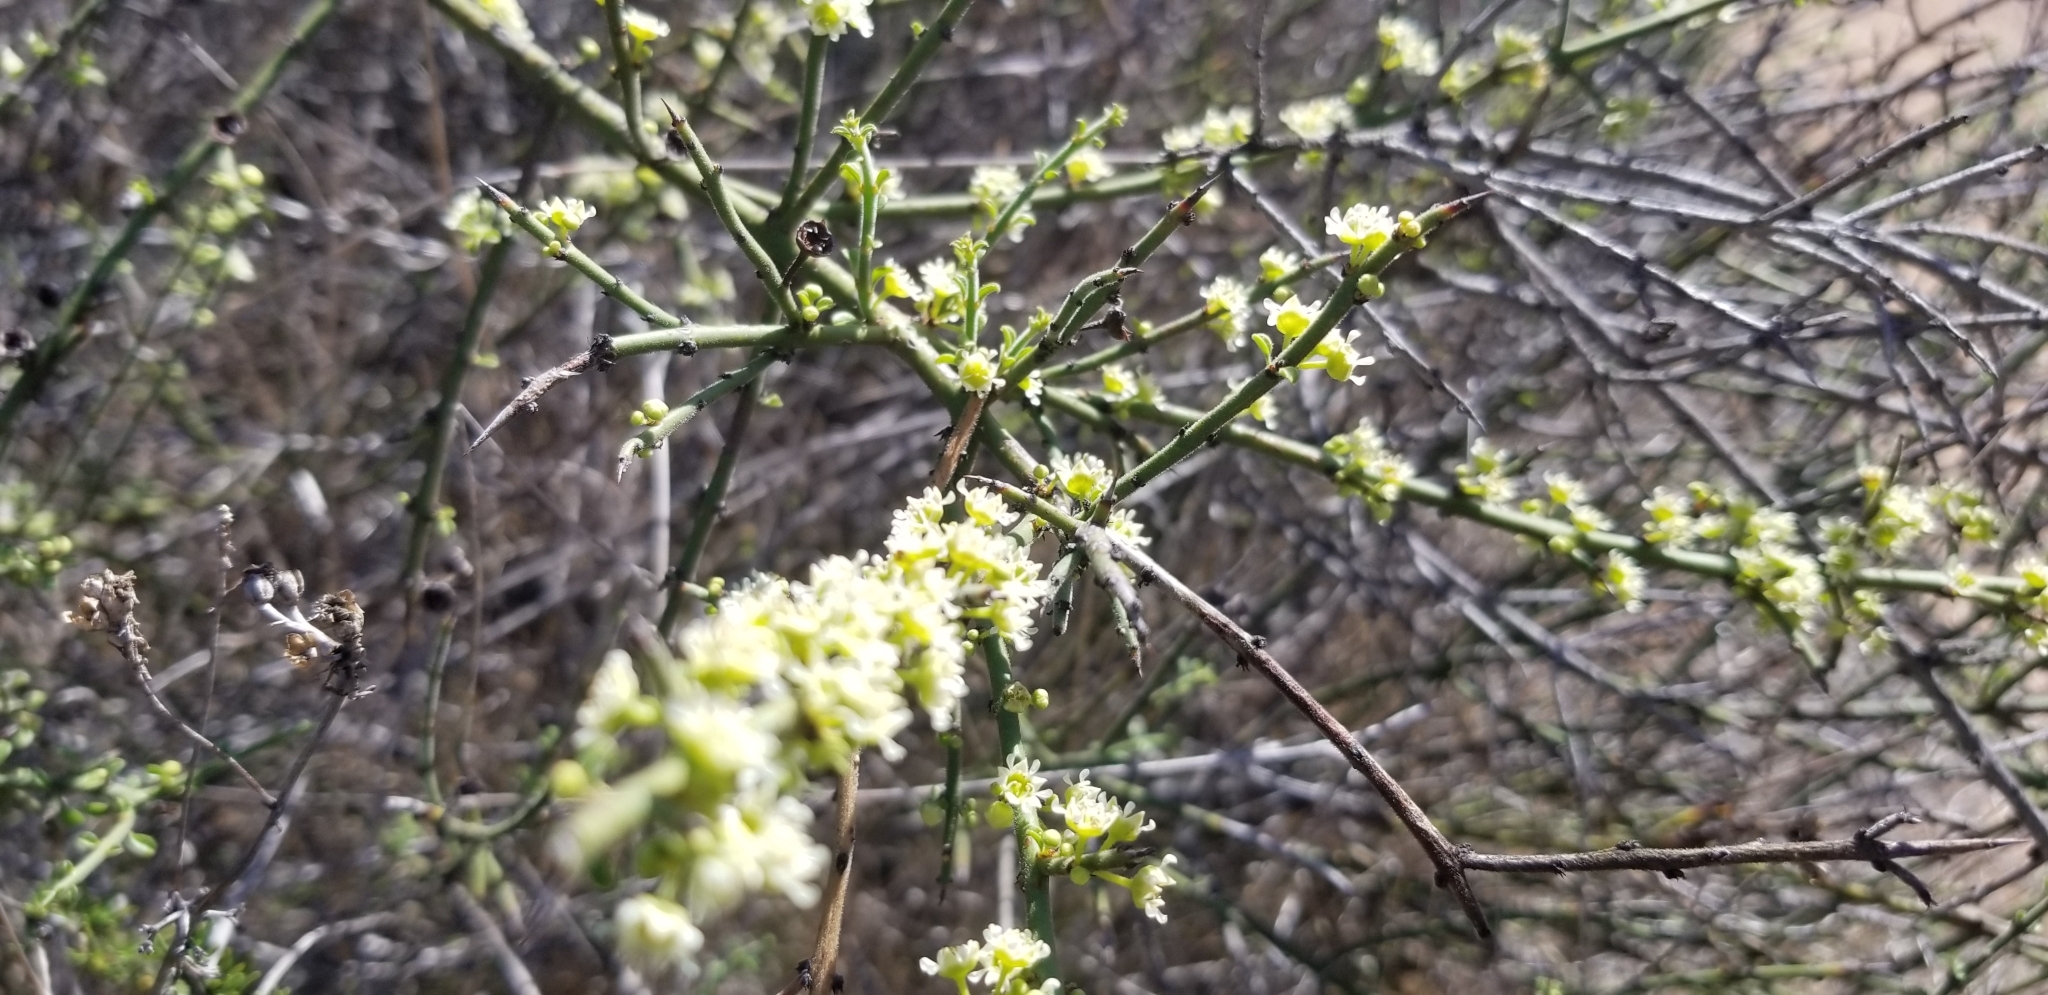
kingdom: Plantae
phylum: Tracheophyta
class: Magnoliopsida
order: Rosales
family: Rhamnaceae
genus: Adolphia
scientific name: Adolphia californica
